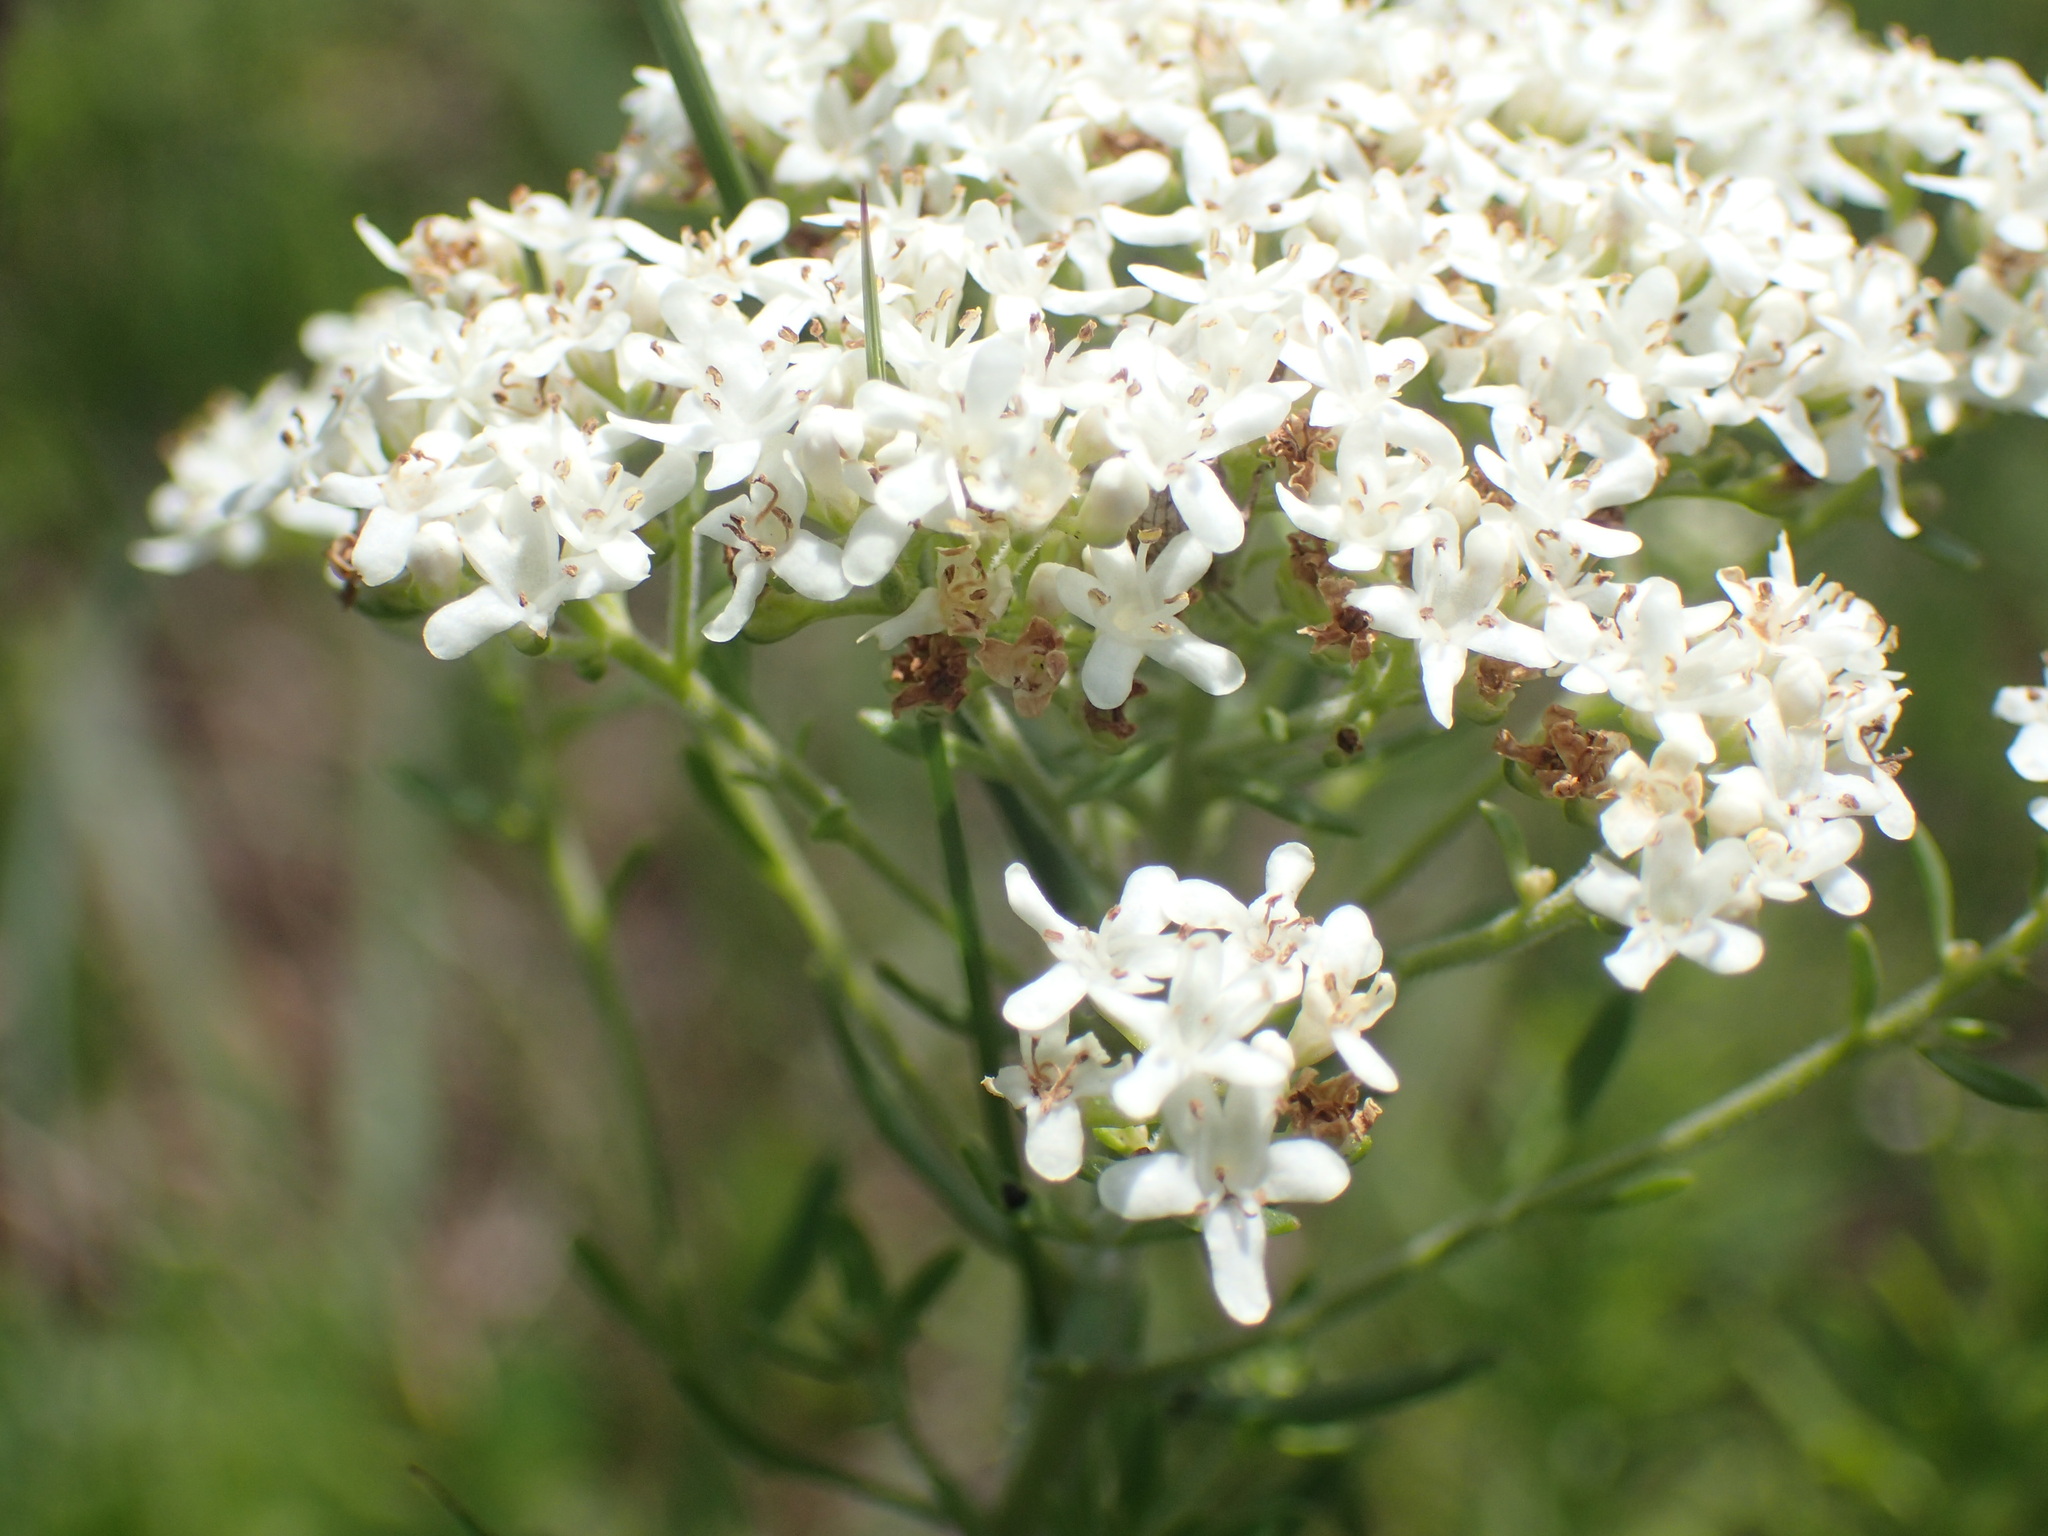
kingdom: Plantae
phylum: Tracheophyta
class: Magnoliopsida
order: Lamiales
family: Scrophulariaceae
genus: Selago
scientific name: Selago tarachodes
